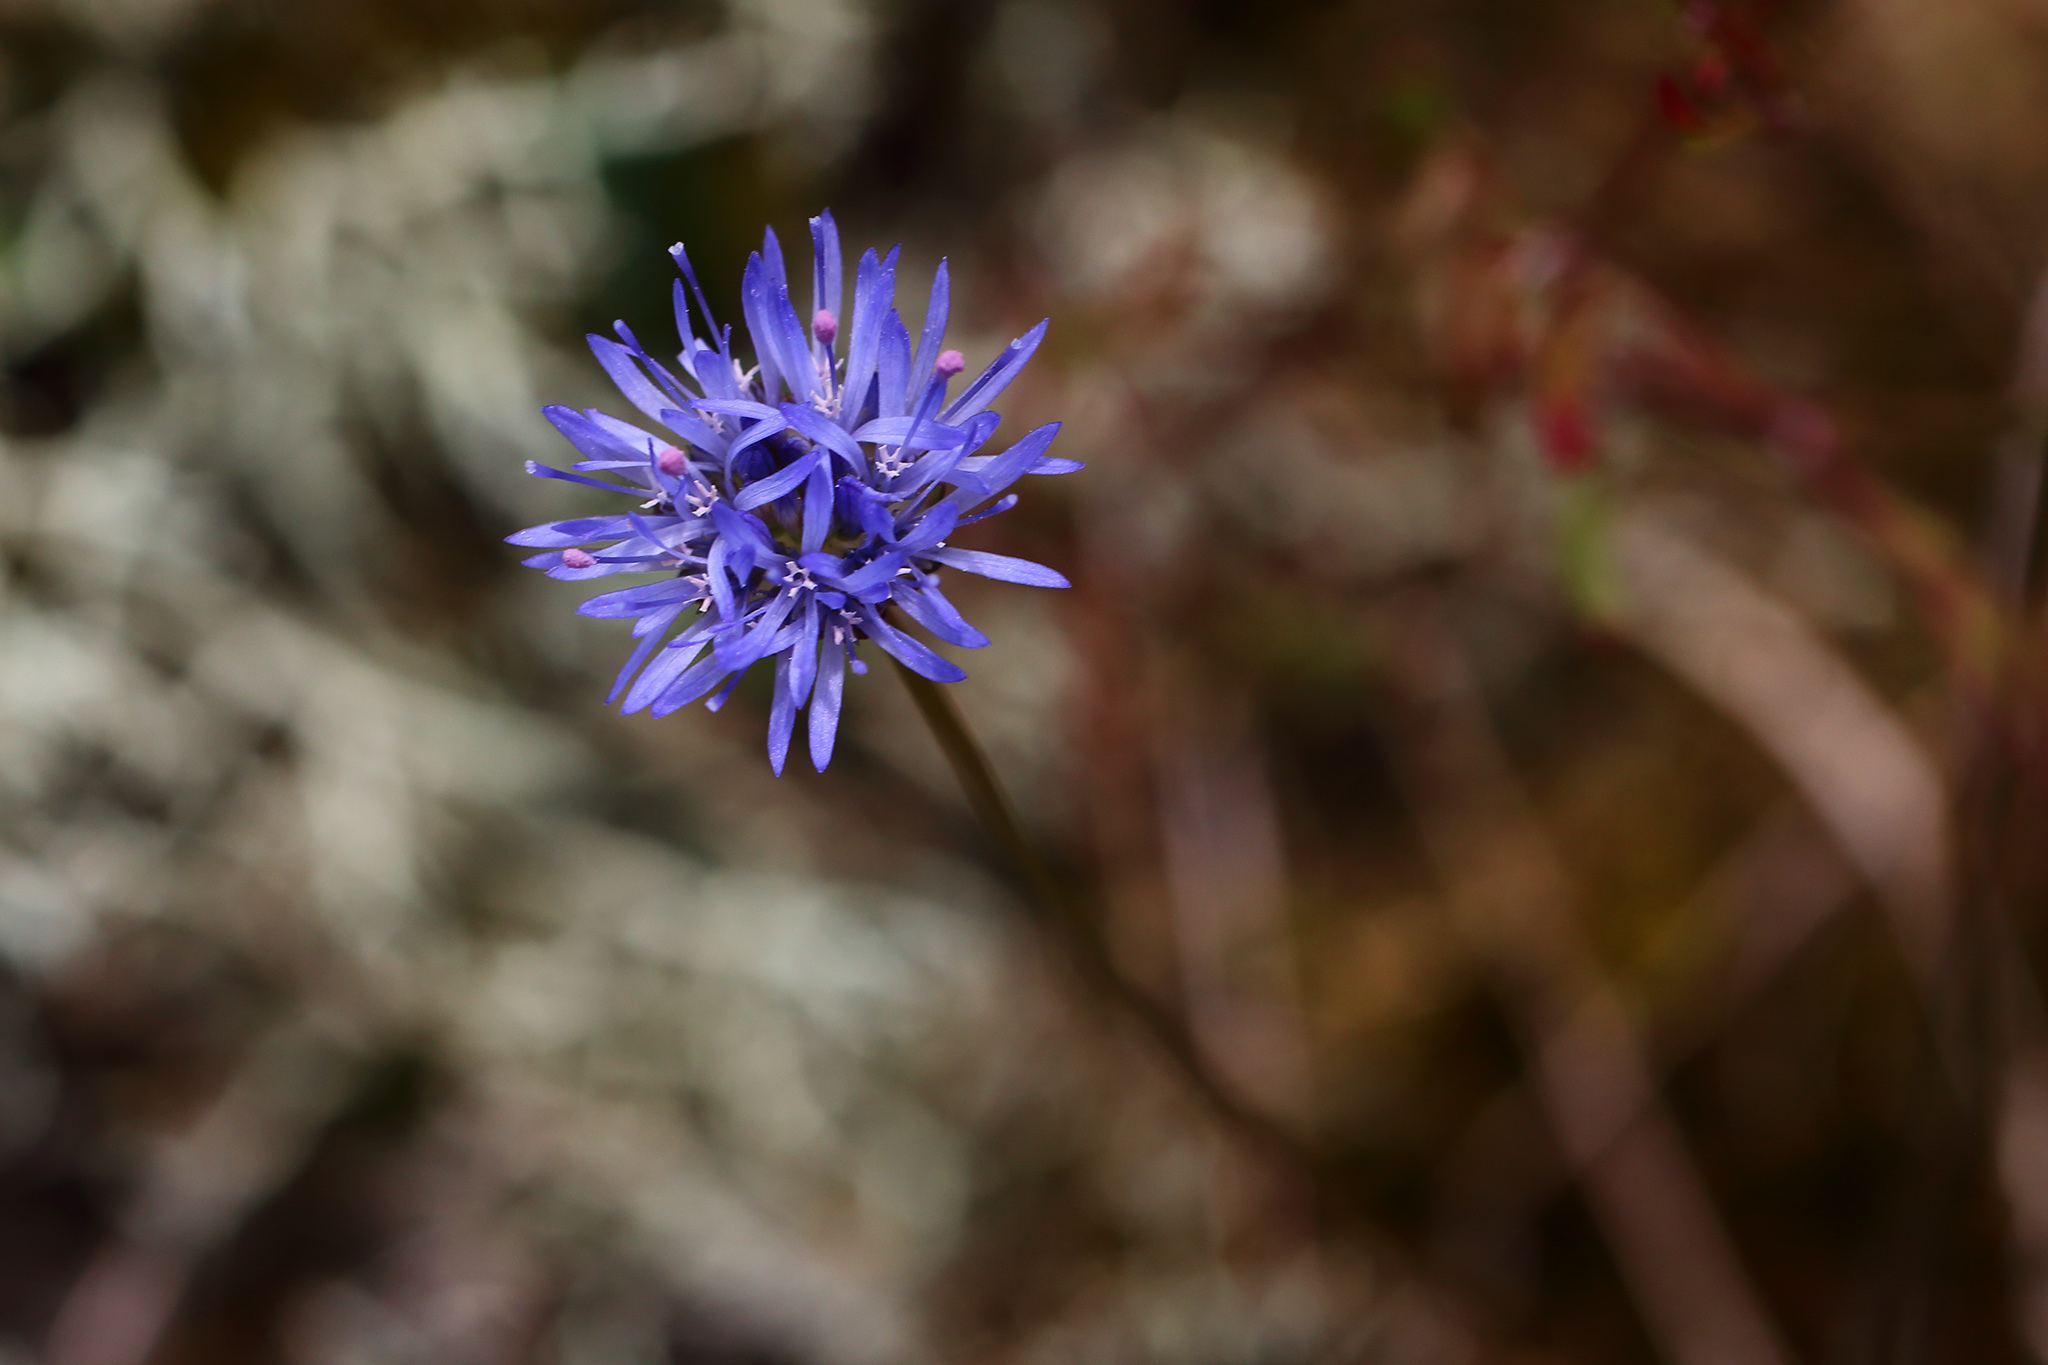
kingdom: Plantae
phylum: Tracheophyta
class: Magnoliopsida
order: Asterales
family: Campanulaceae
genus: Jasione
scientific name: Jasione montana
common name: Sheep's-bit
